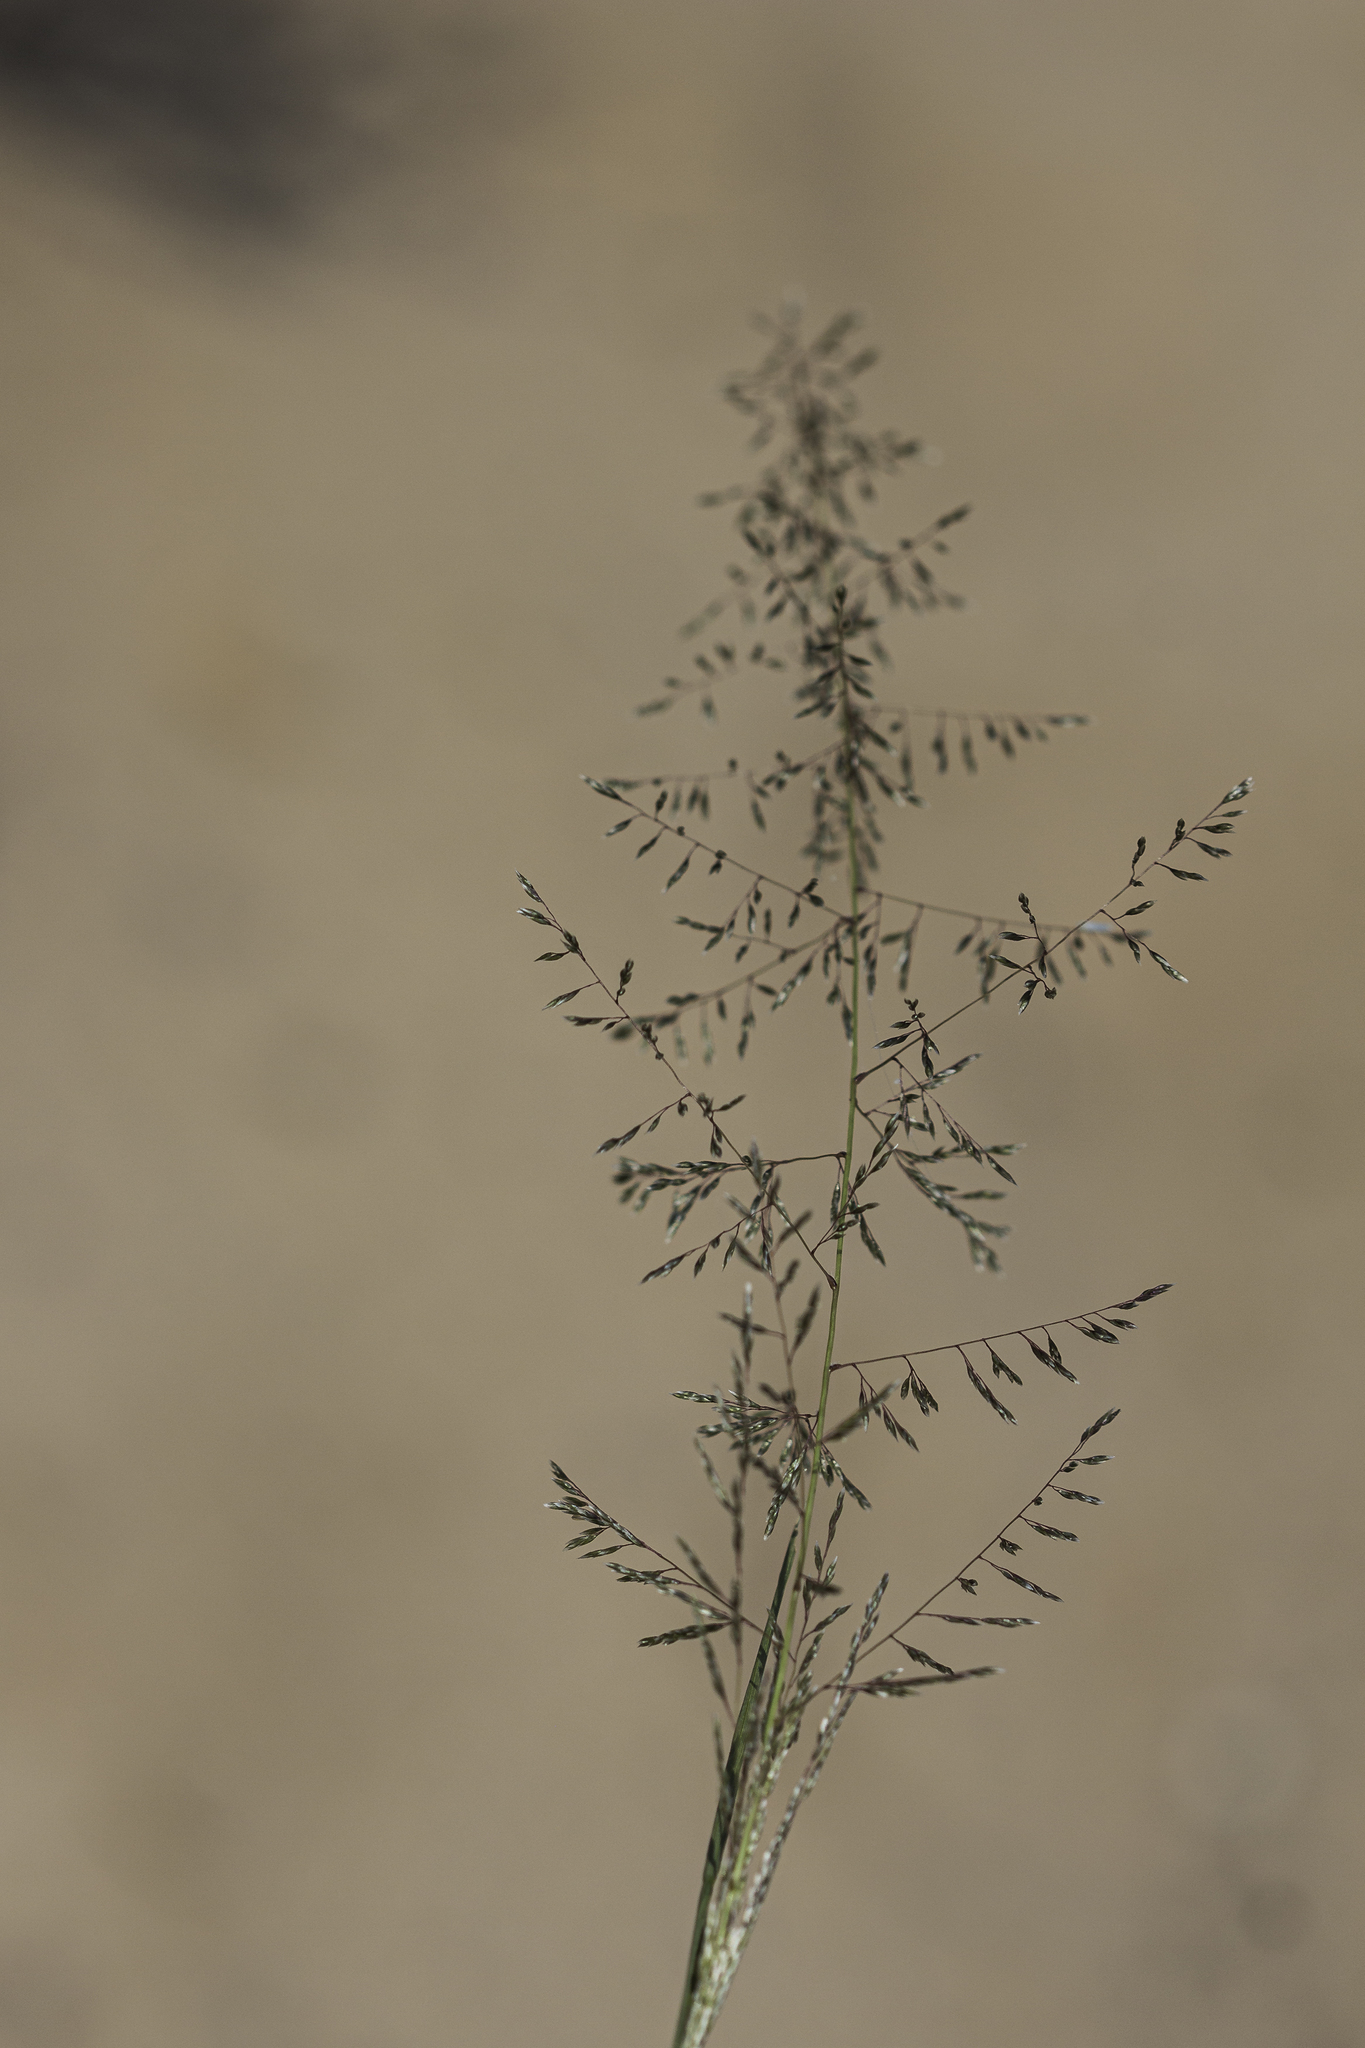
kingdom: Plantae
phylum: Tracheophyta
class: Liliopsida
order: Poales
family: Poaceae
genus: Sporobolus
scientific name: Sporobolus flexuosus
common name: Mesa dropseed
